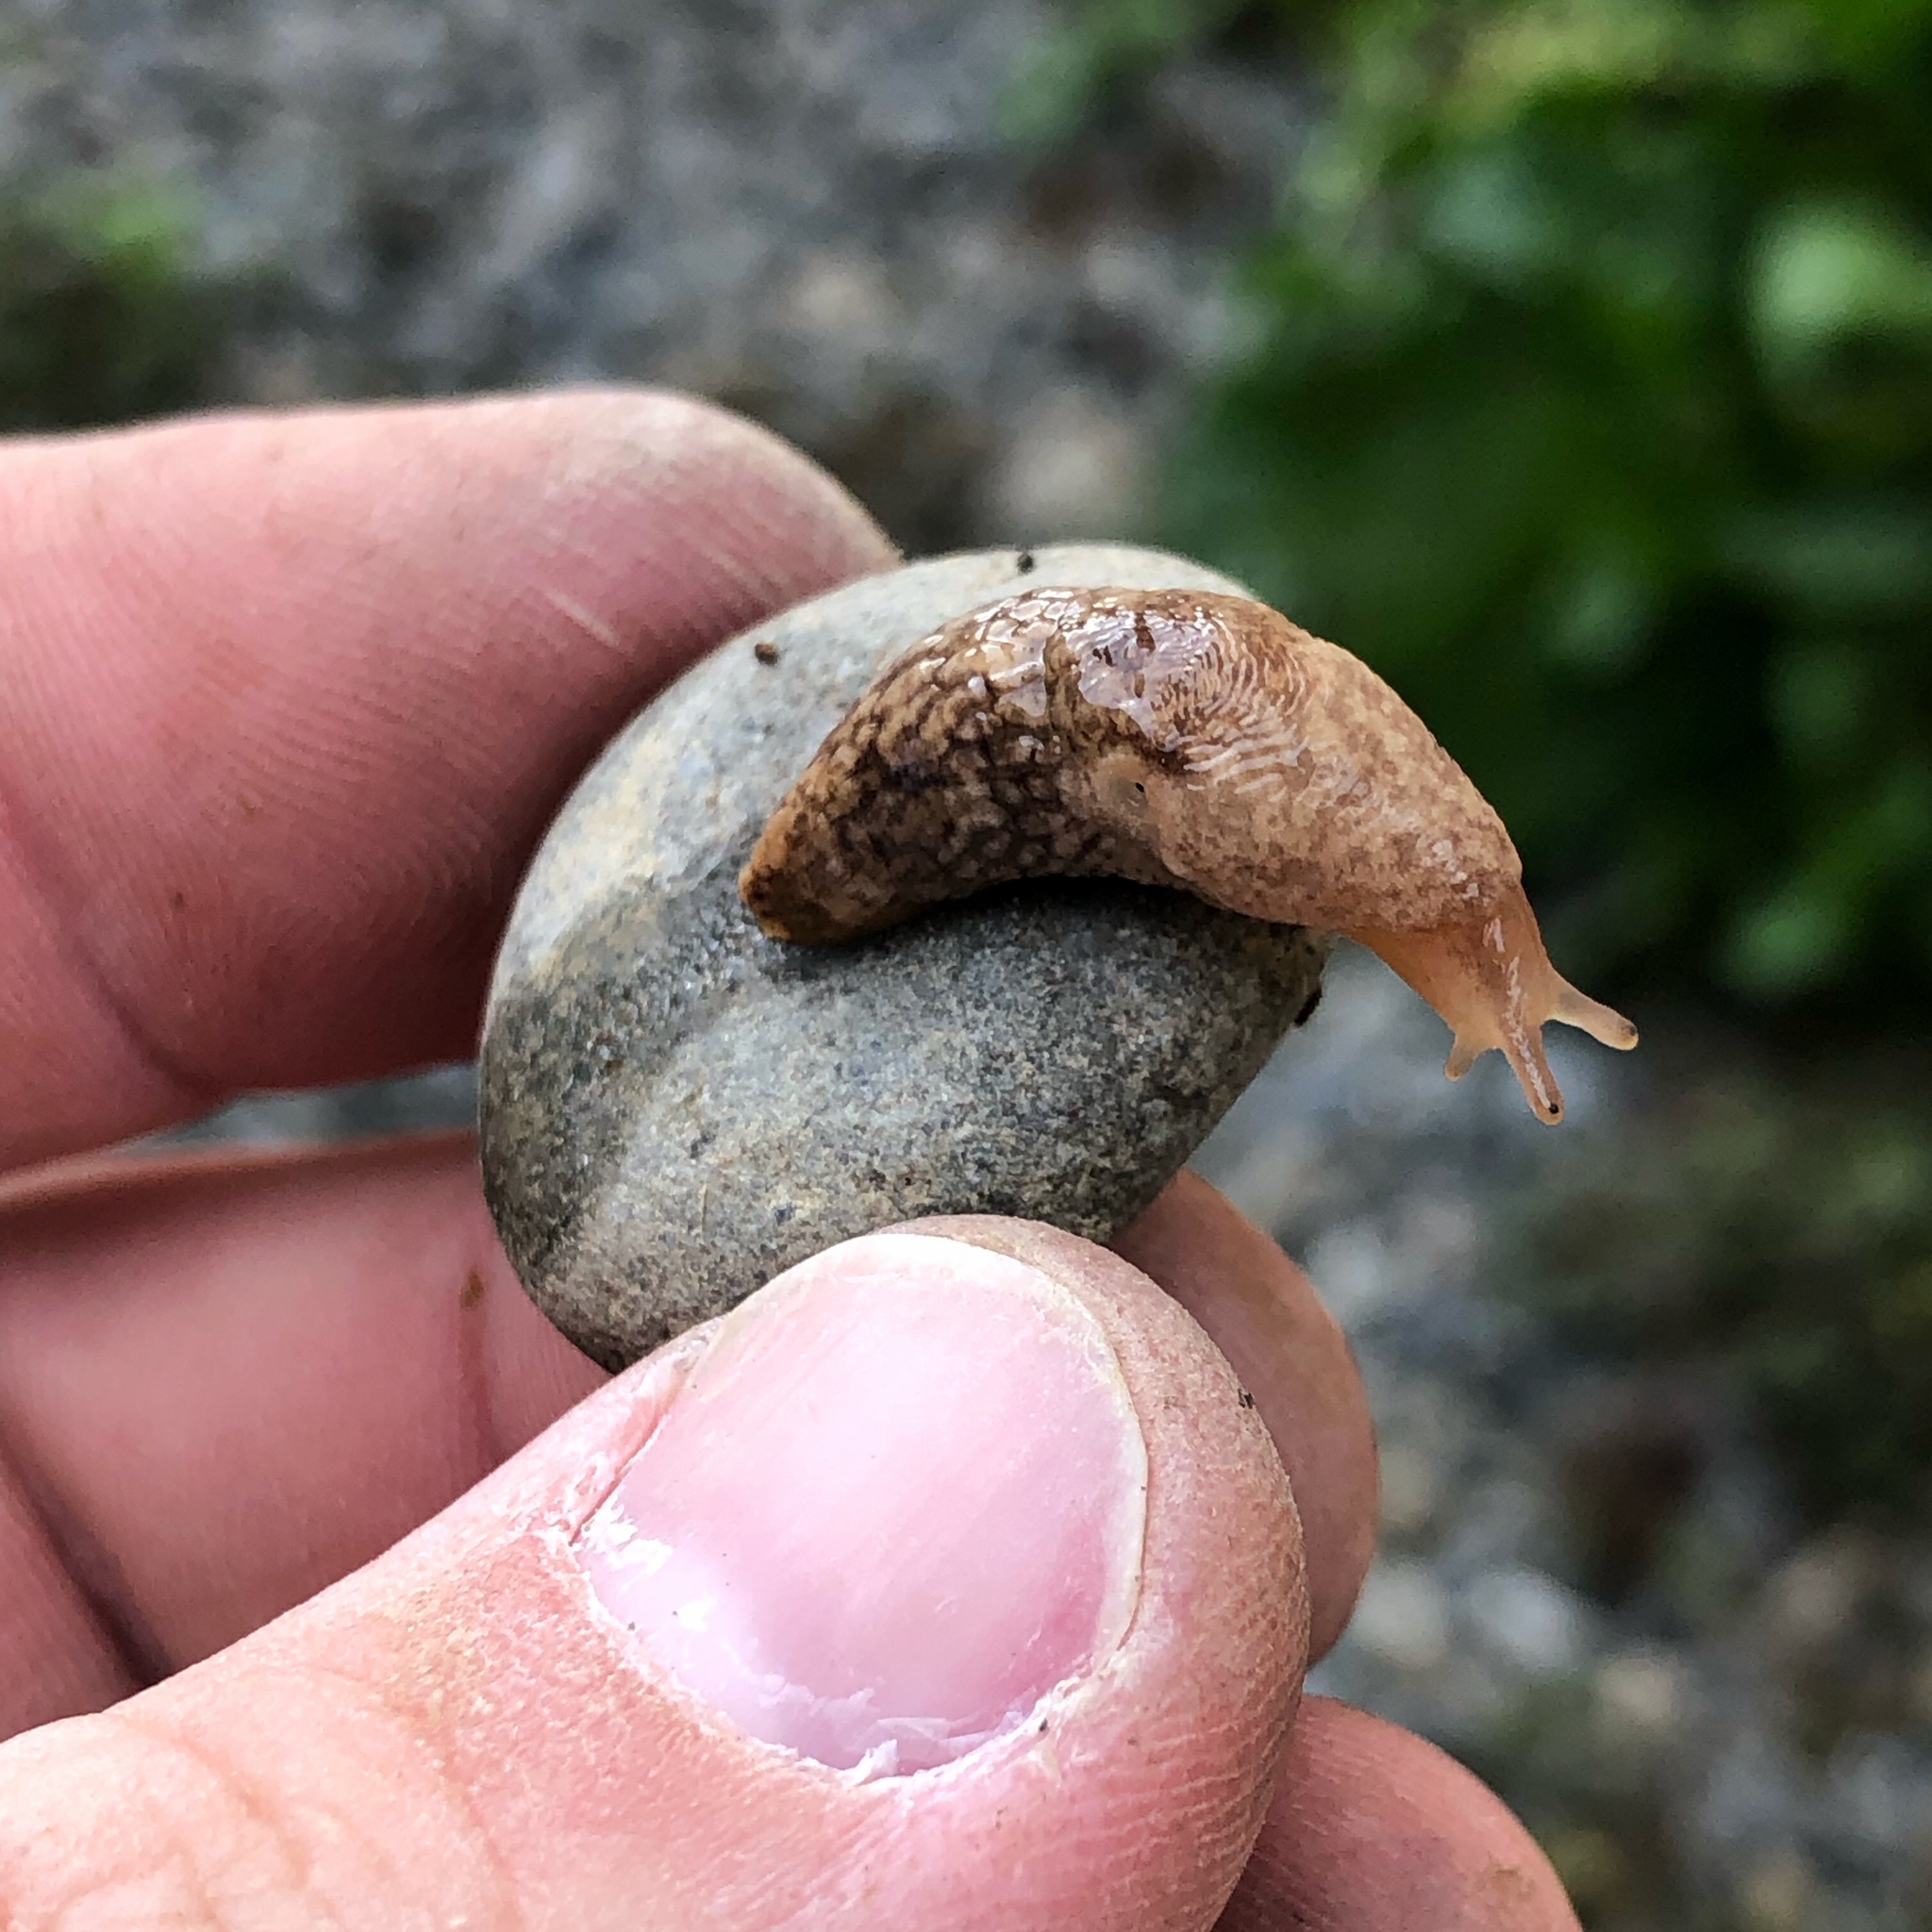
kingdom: Animalia
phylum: Mollusca
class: Gastropoda
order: Stylommatophora
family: Agriolimacidae
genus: Deroceras
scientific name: Deroceras reticulatum
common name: Gray field slug
